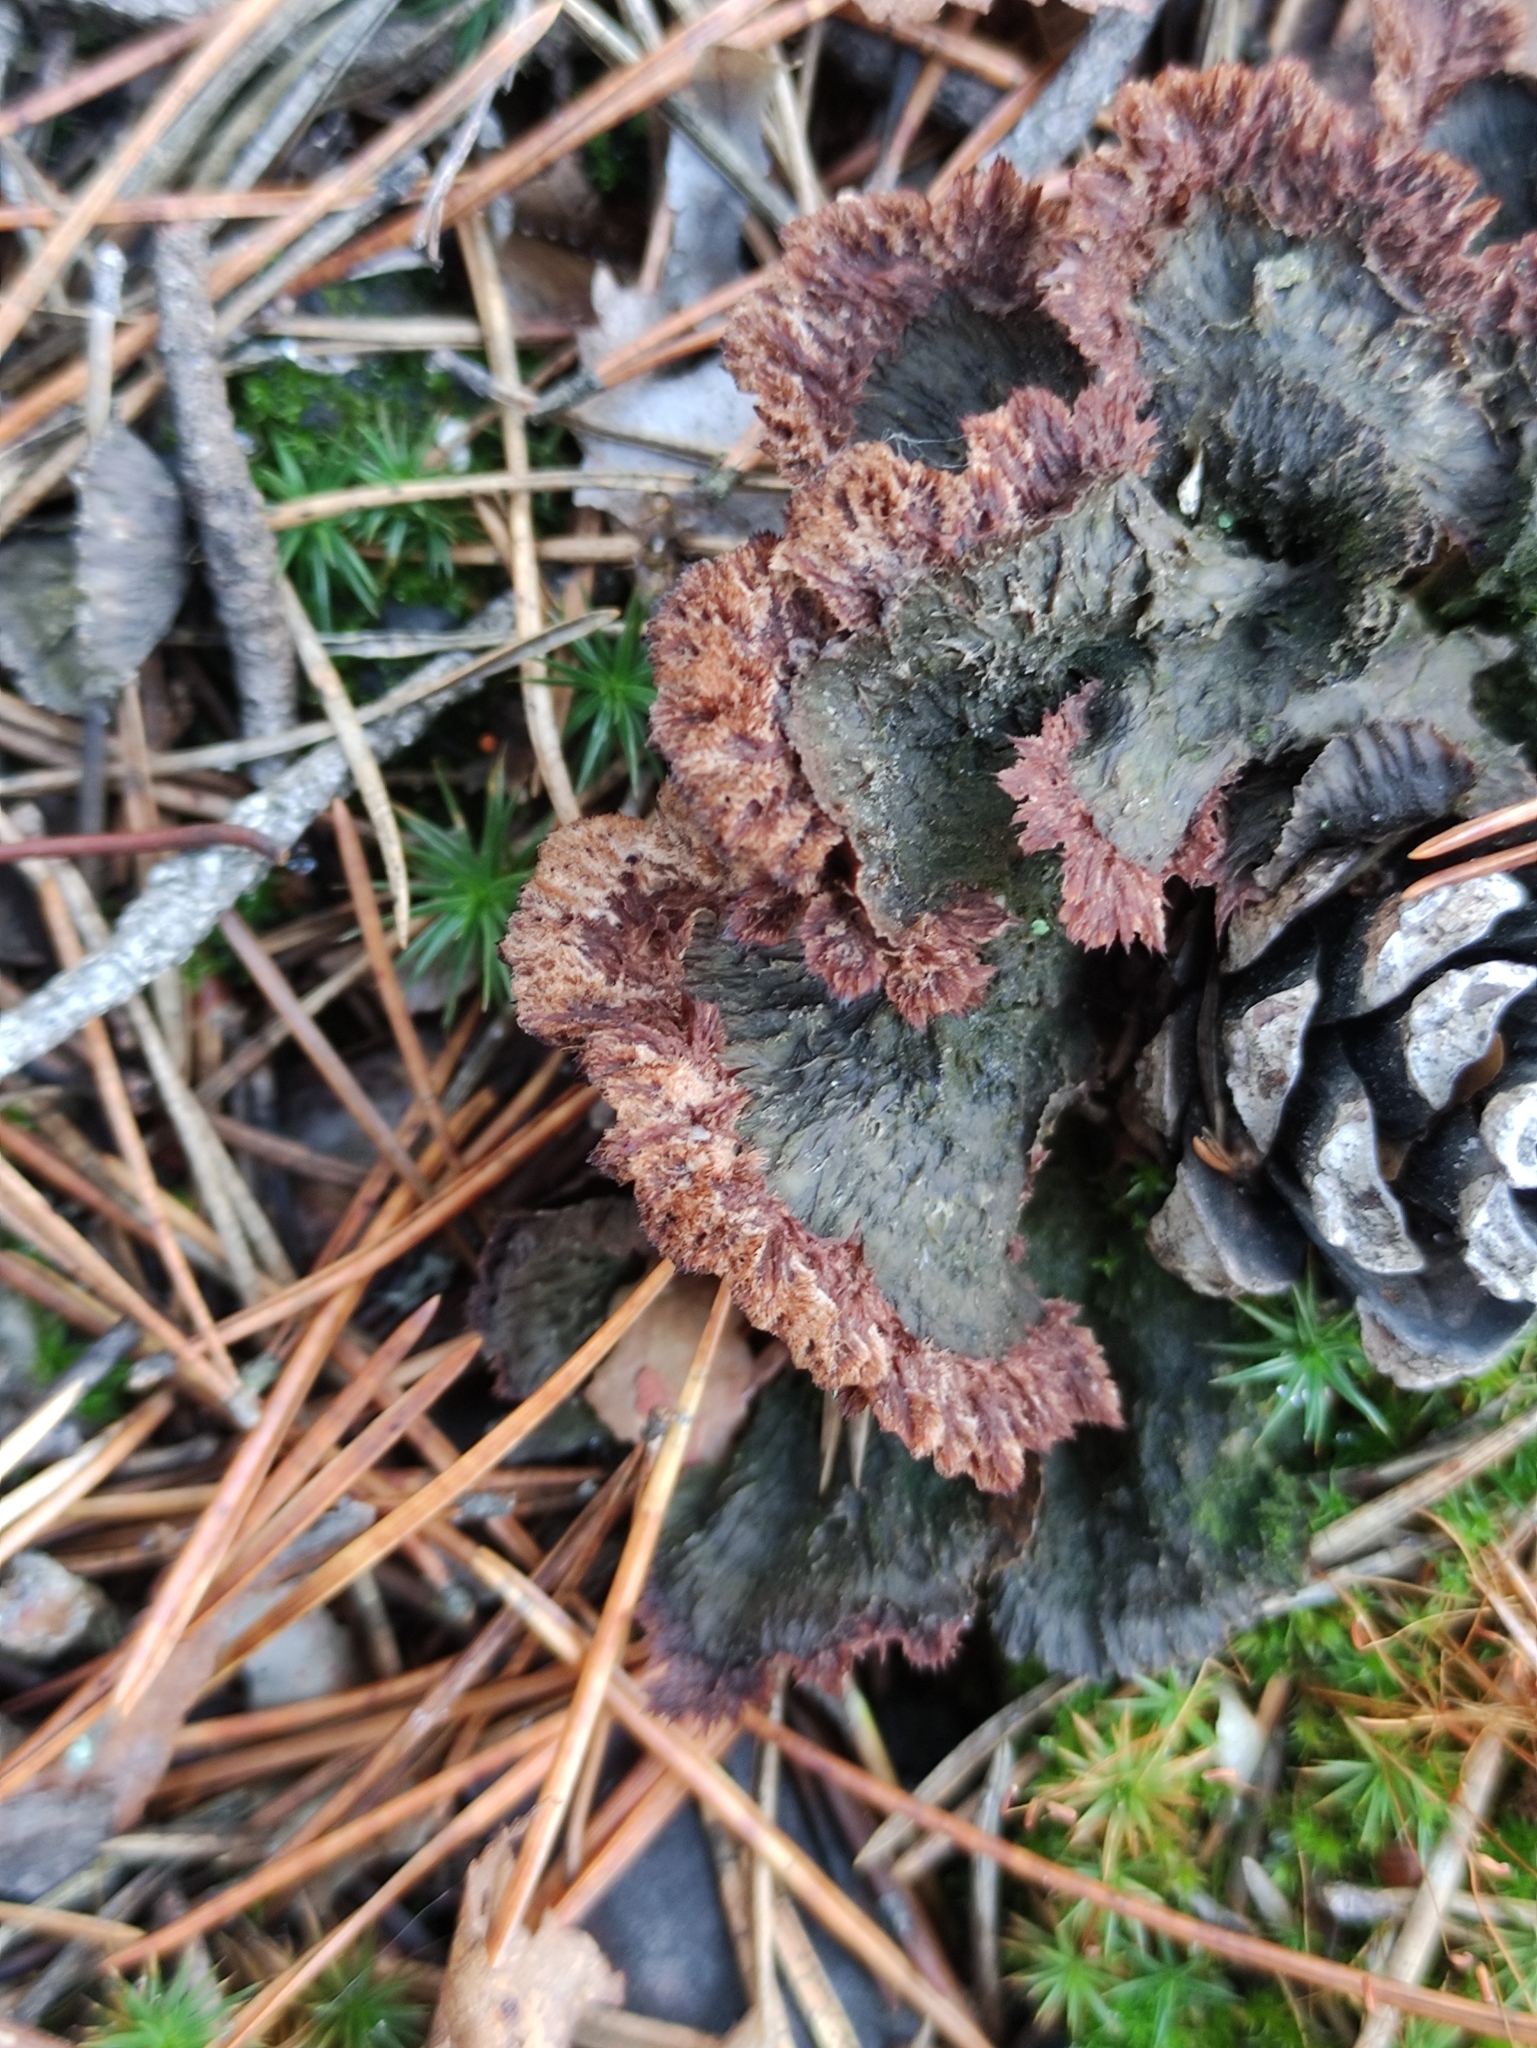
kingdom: Fungi
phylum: Basidiomycota
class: Agaricomycetes
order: Thelephorales
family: Thelephoraceae
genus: Thelephora
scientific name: Thelephora terrestris
